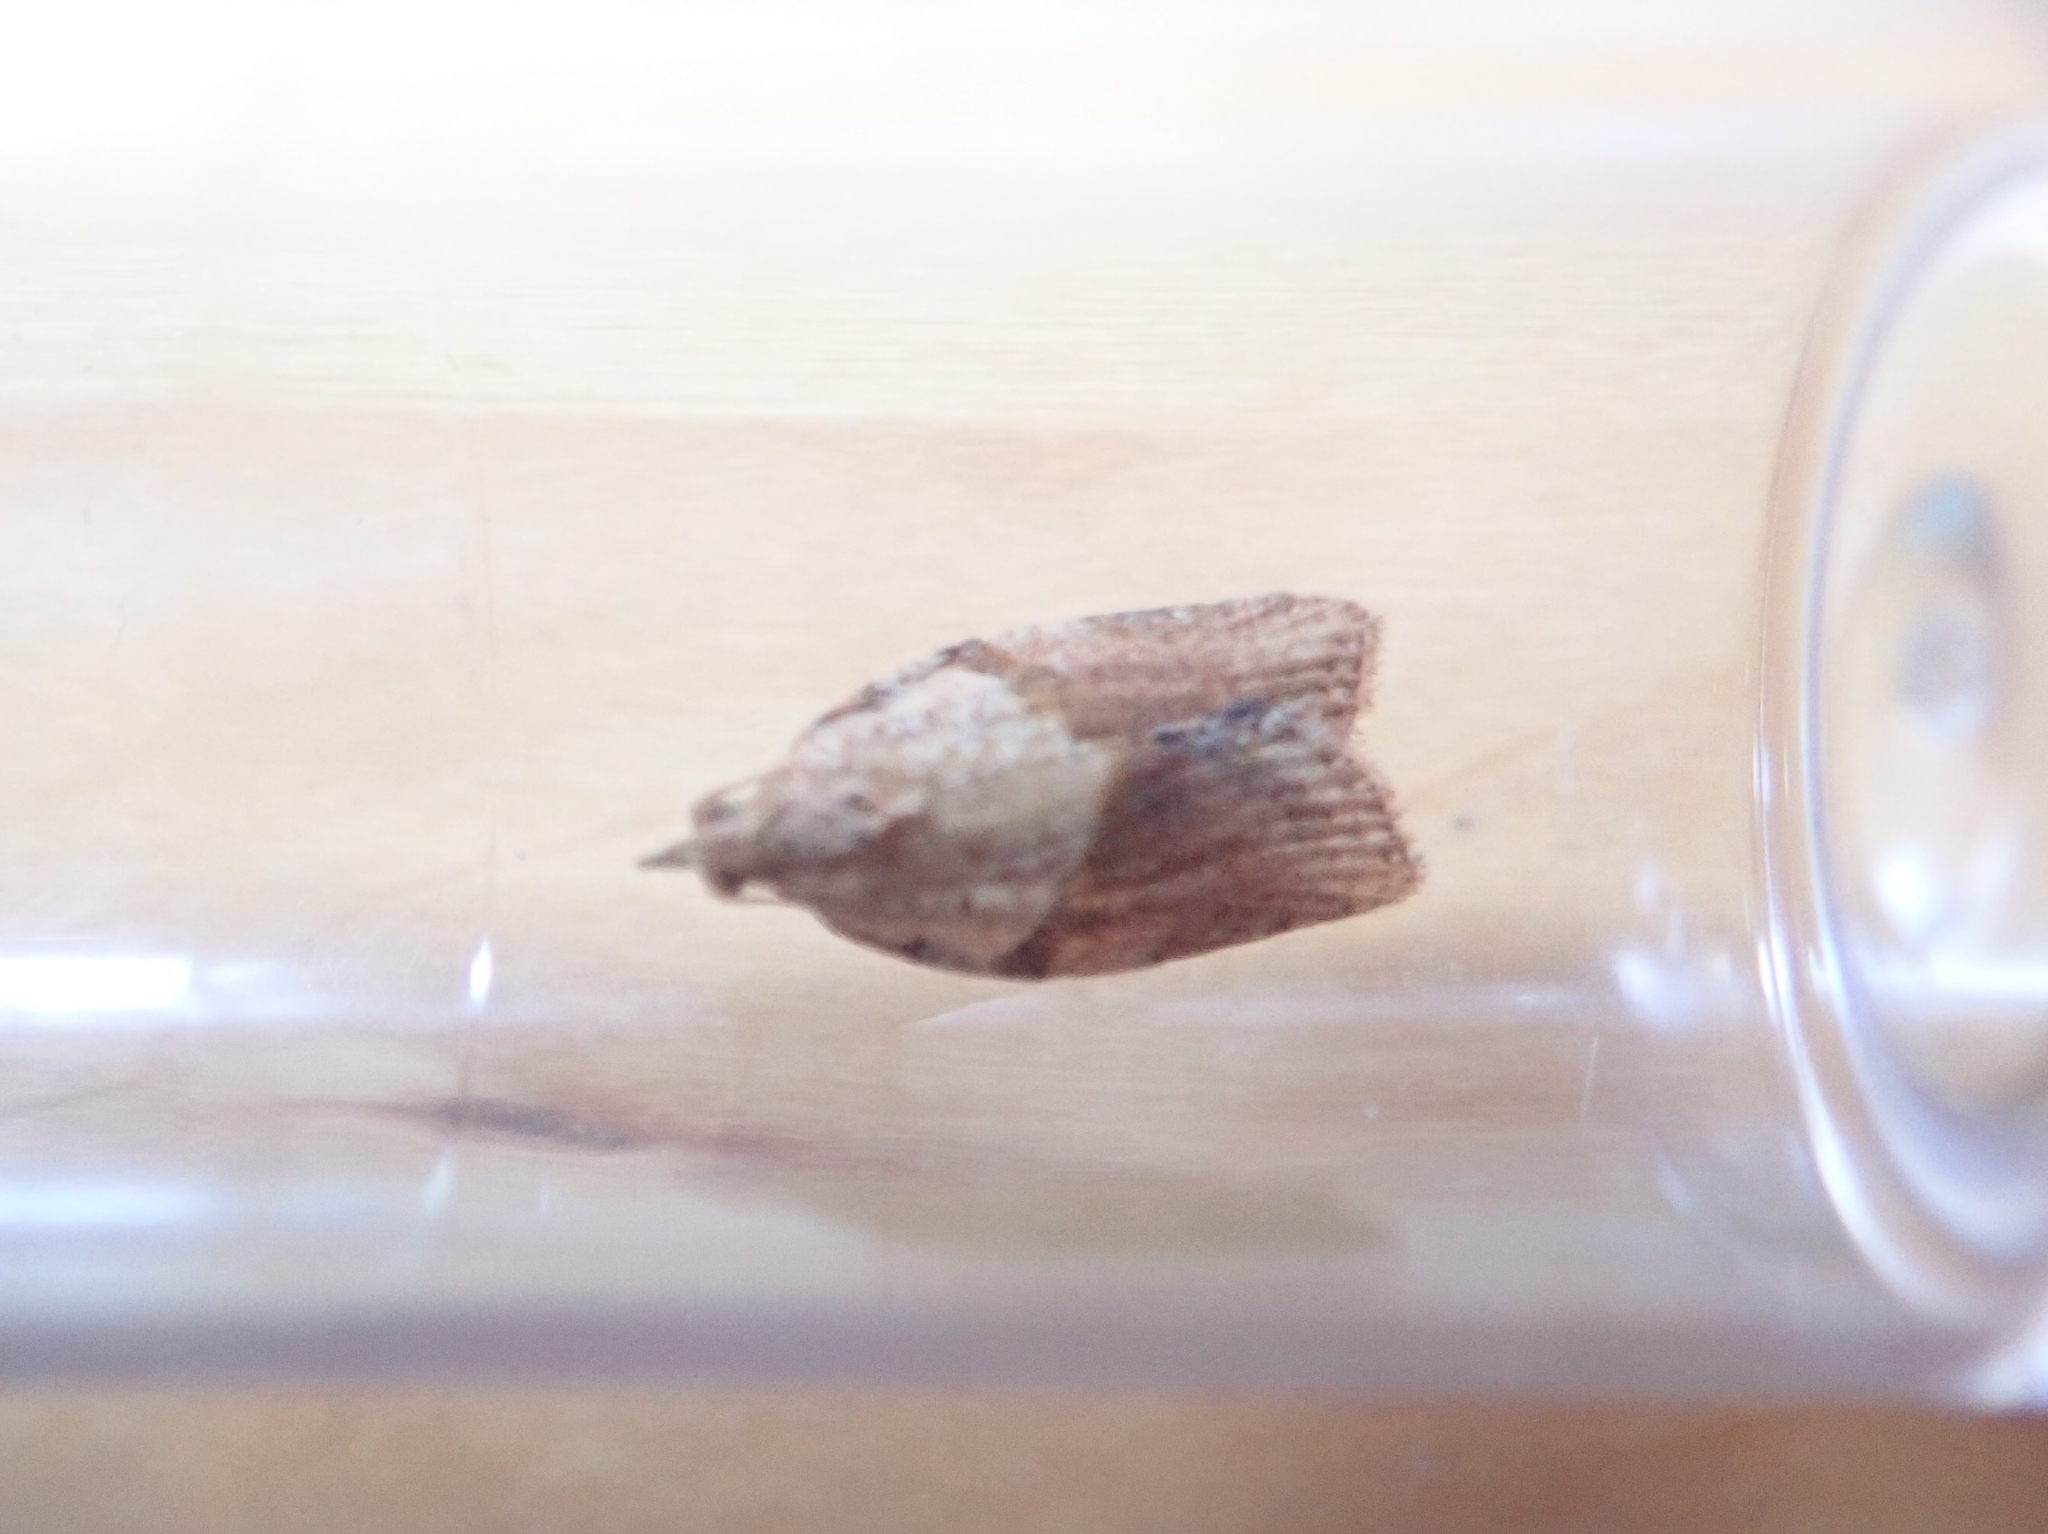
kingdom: Animalia
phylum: Arthropoda
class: Insecta
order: Lepidoptera
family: Tortricidae
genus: Epiphyas
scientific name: Epiphyas postvittana
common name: Light brown apple moth
